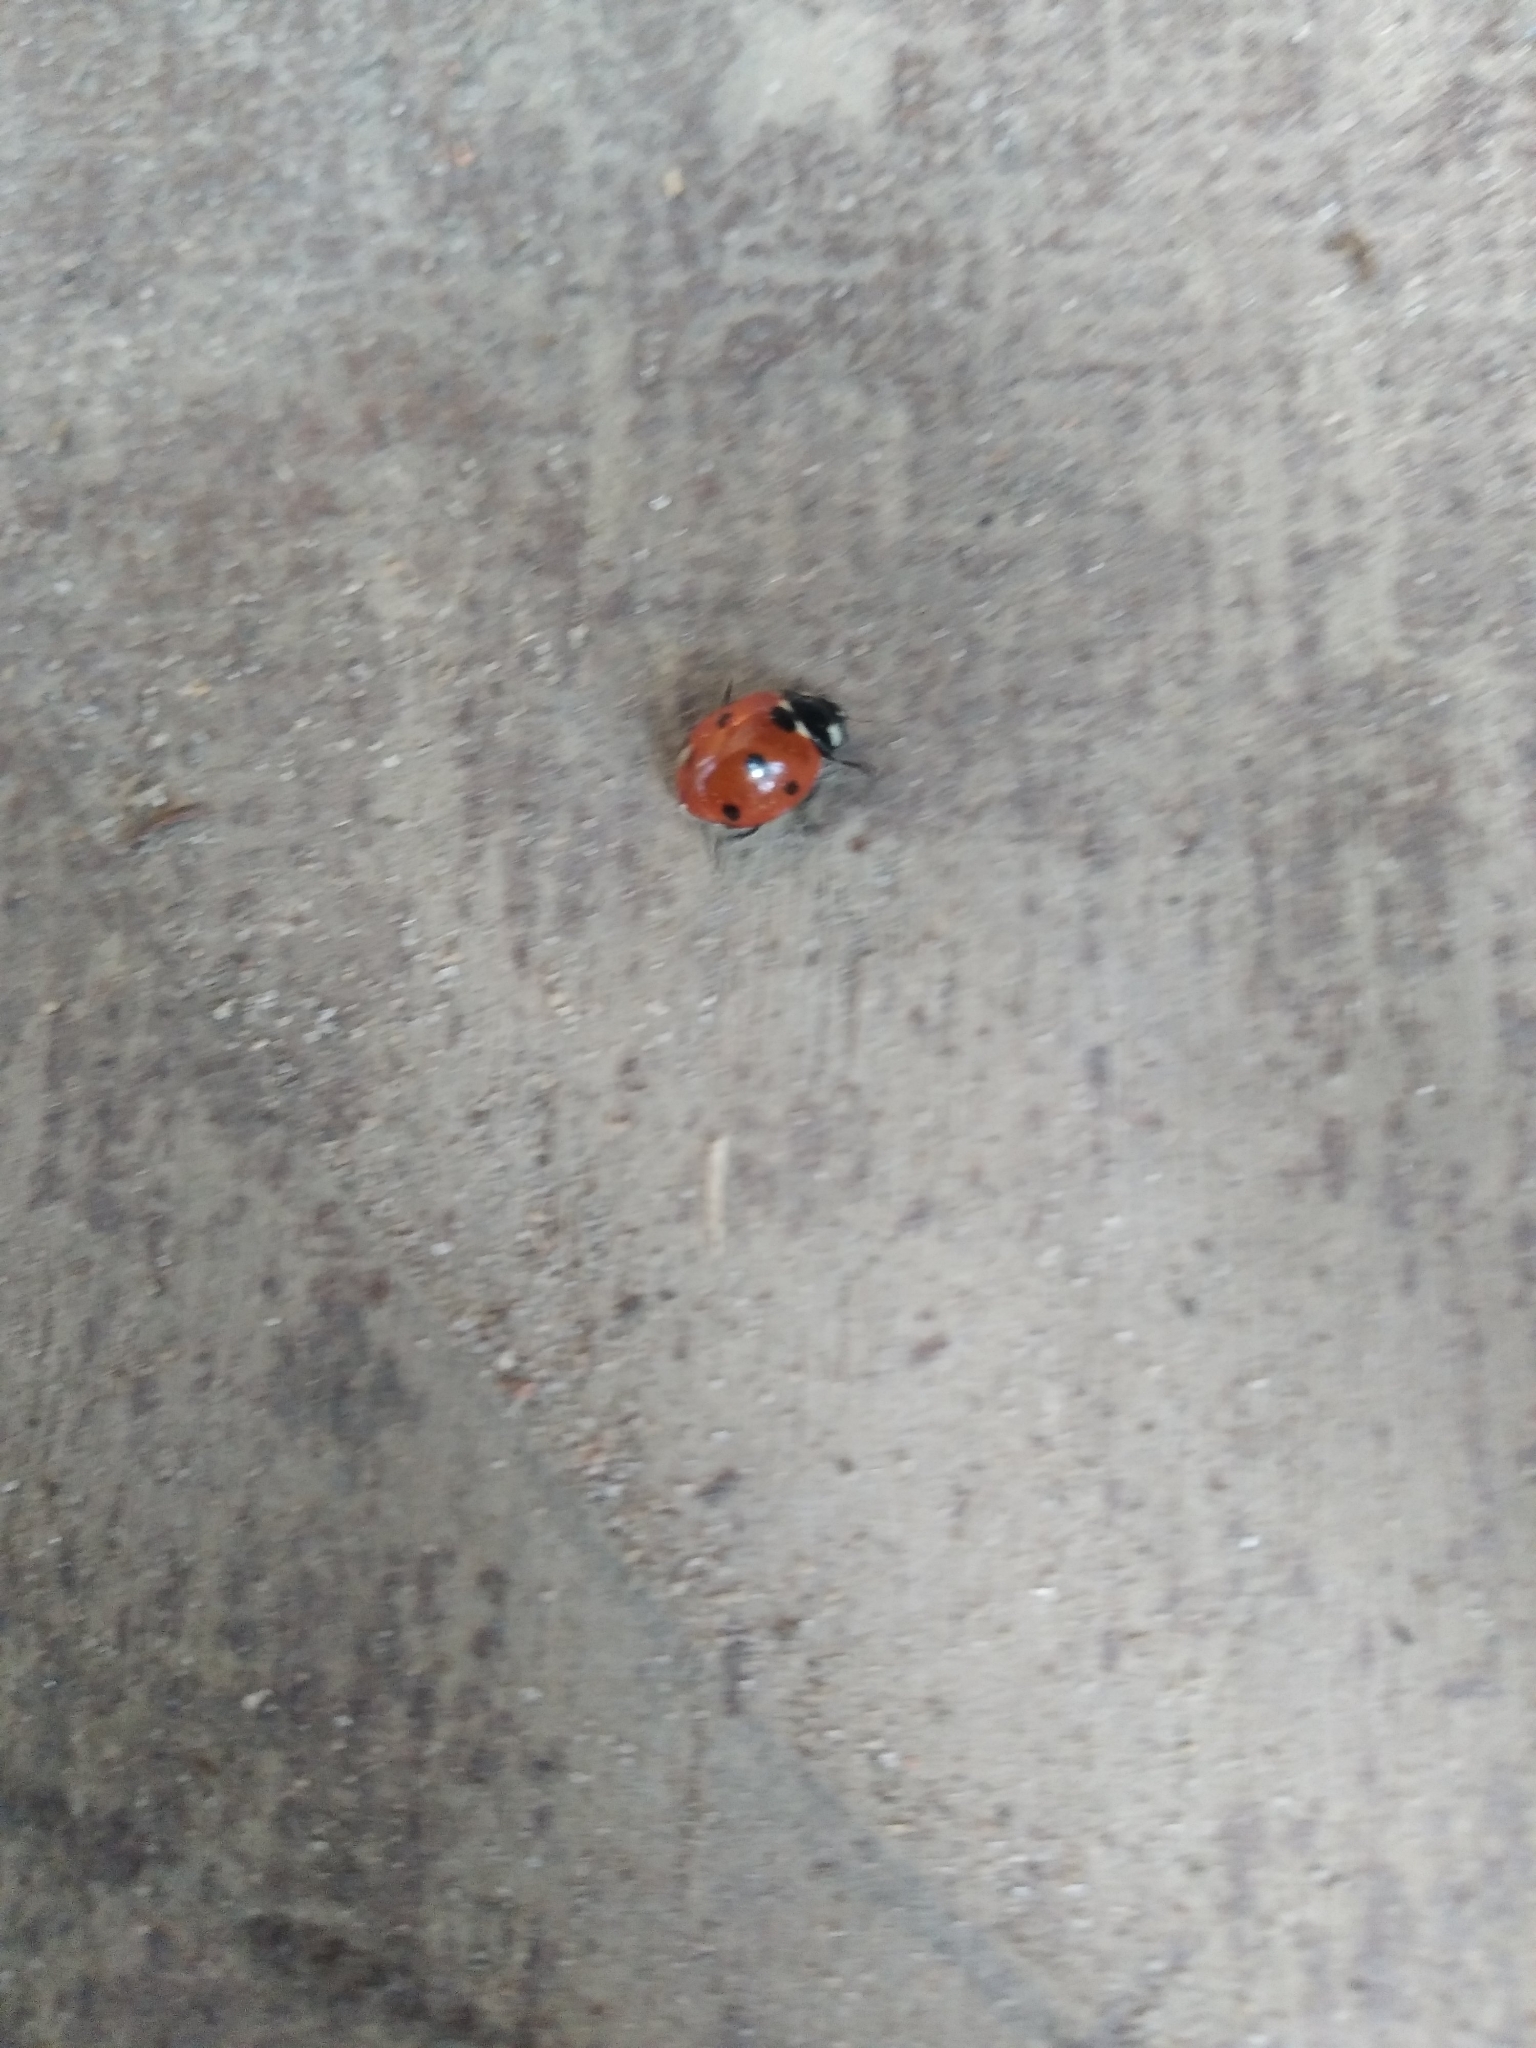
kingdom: Animalia
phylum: Arthropoda
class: Insecta
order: Coleoptera
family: Coccinellidae
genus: Coccinella
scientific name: Coccinella septempunctata
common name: Sevenspotted lady beetle
